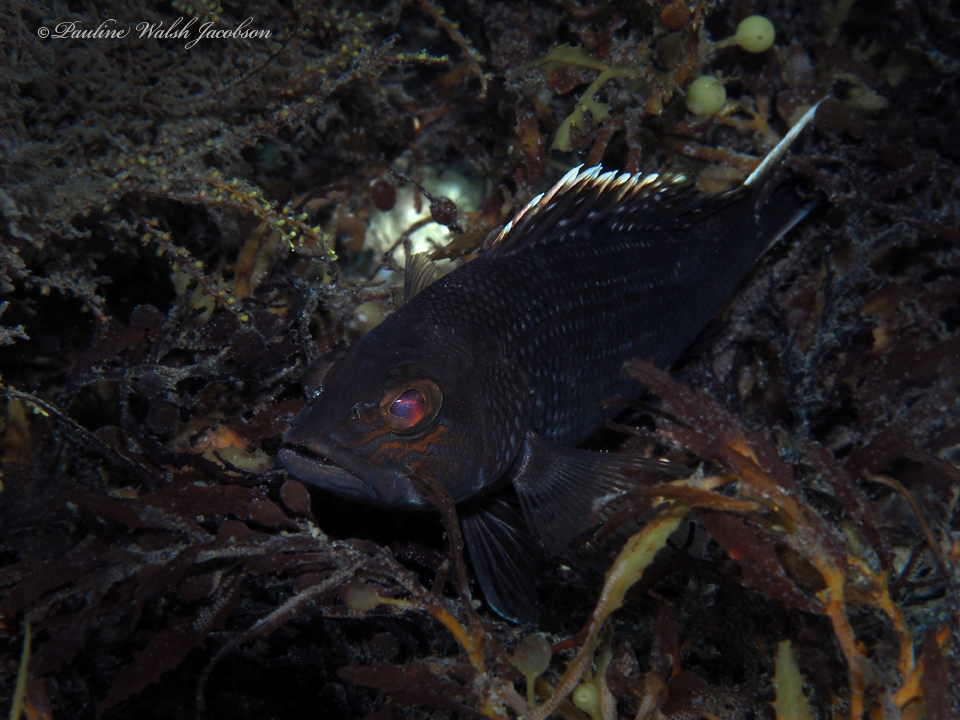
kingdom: Animalia
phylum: Chordata
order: Perciformes
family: Serranidae
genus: Centropristis
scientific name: Centropristis striata
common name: Black sea bass
